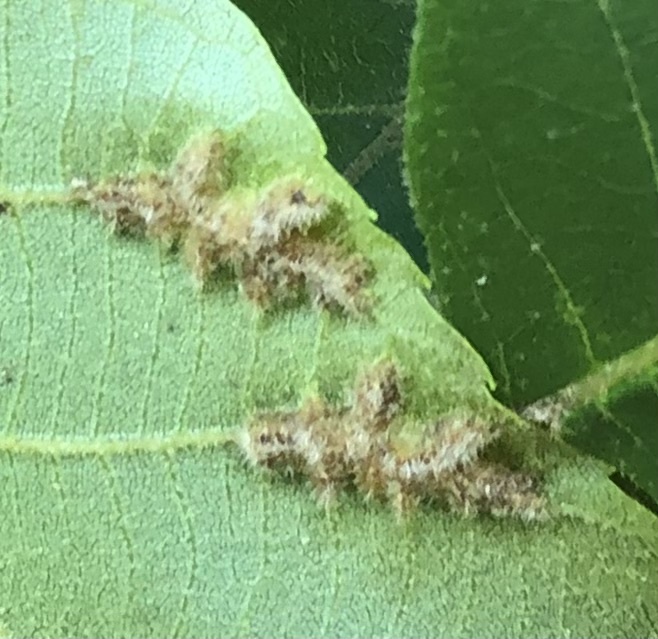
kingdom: Animalia
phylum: Arthropoda
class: Insecta
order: Hemiptera
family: Phylloxeridae
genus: Phylloxera
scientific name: Phylloxera caryaevenae
